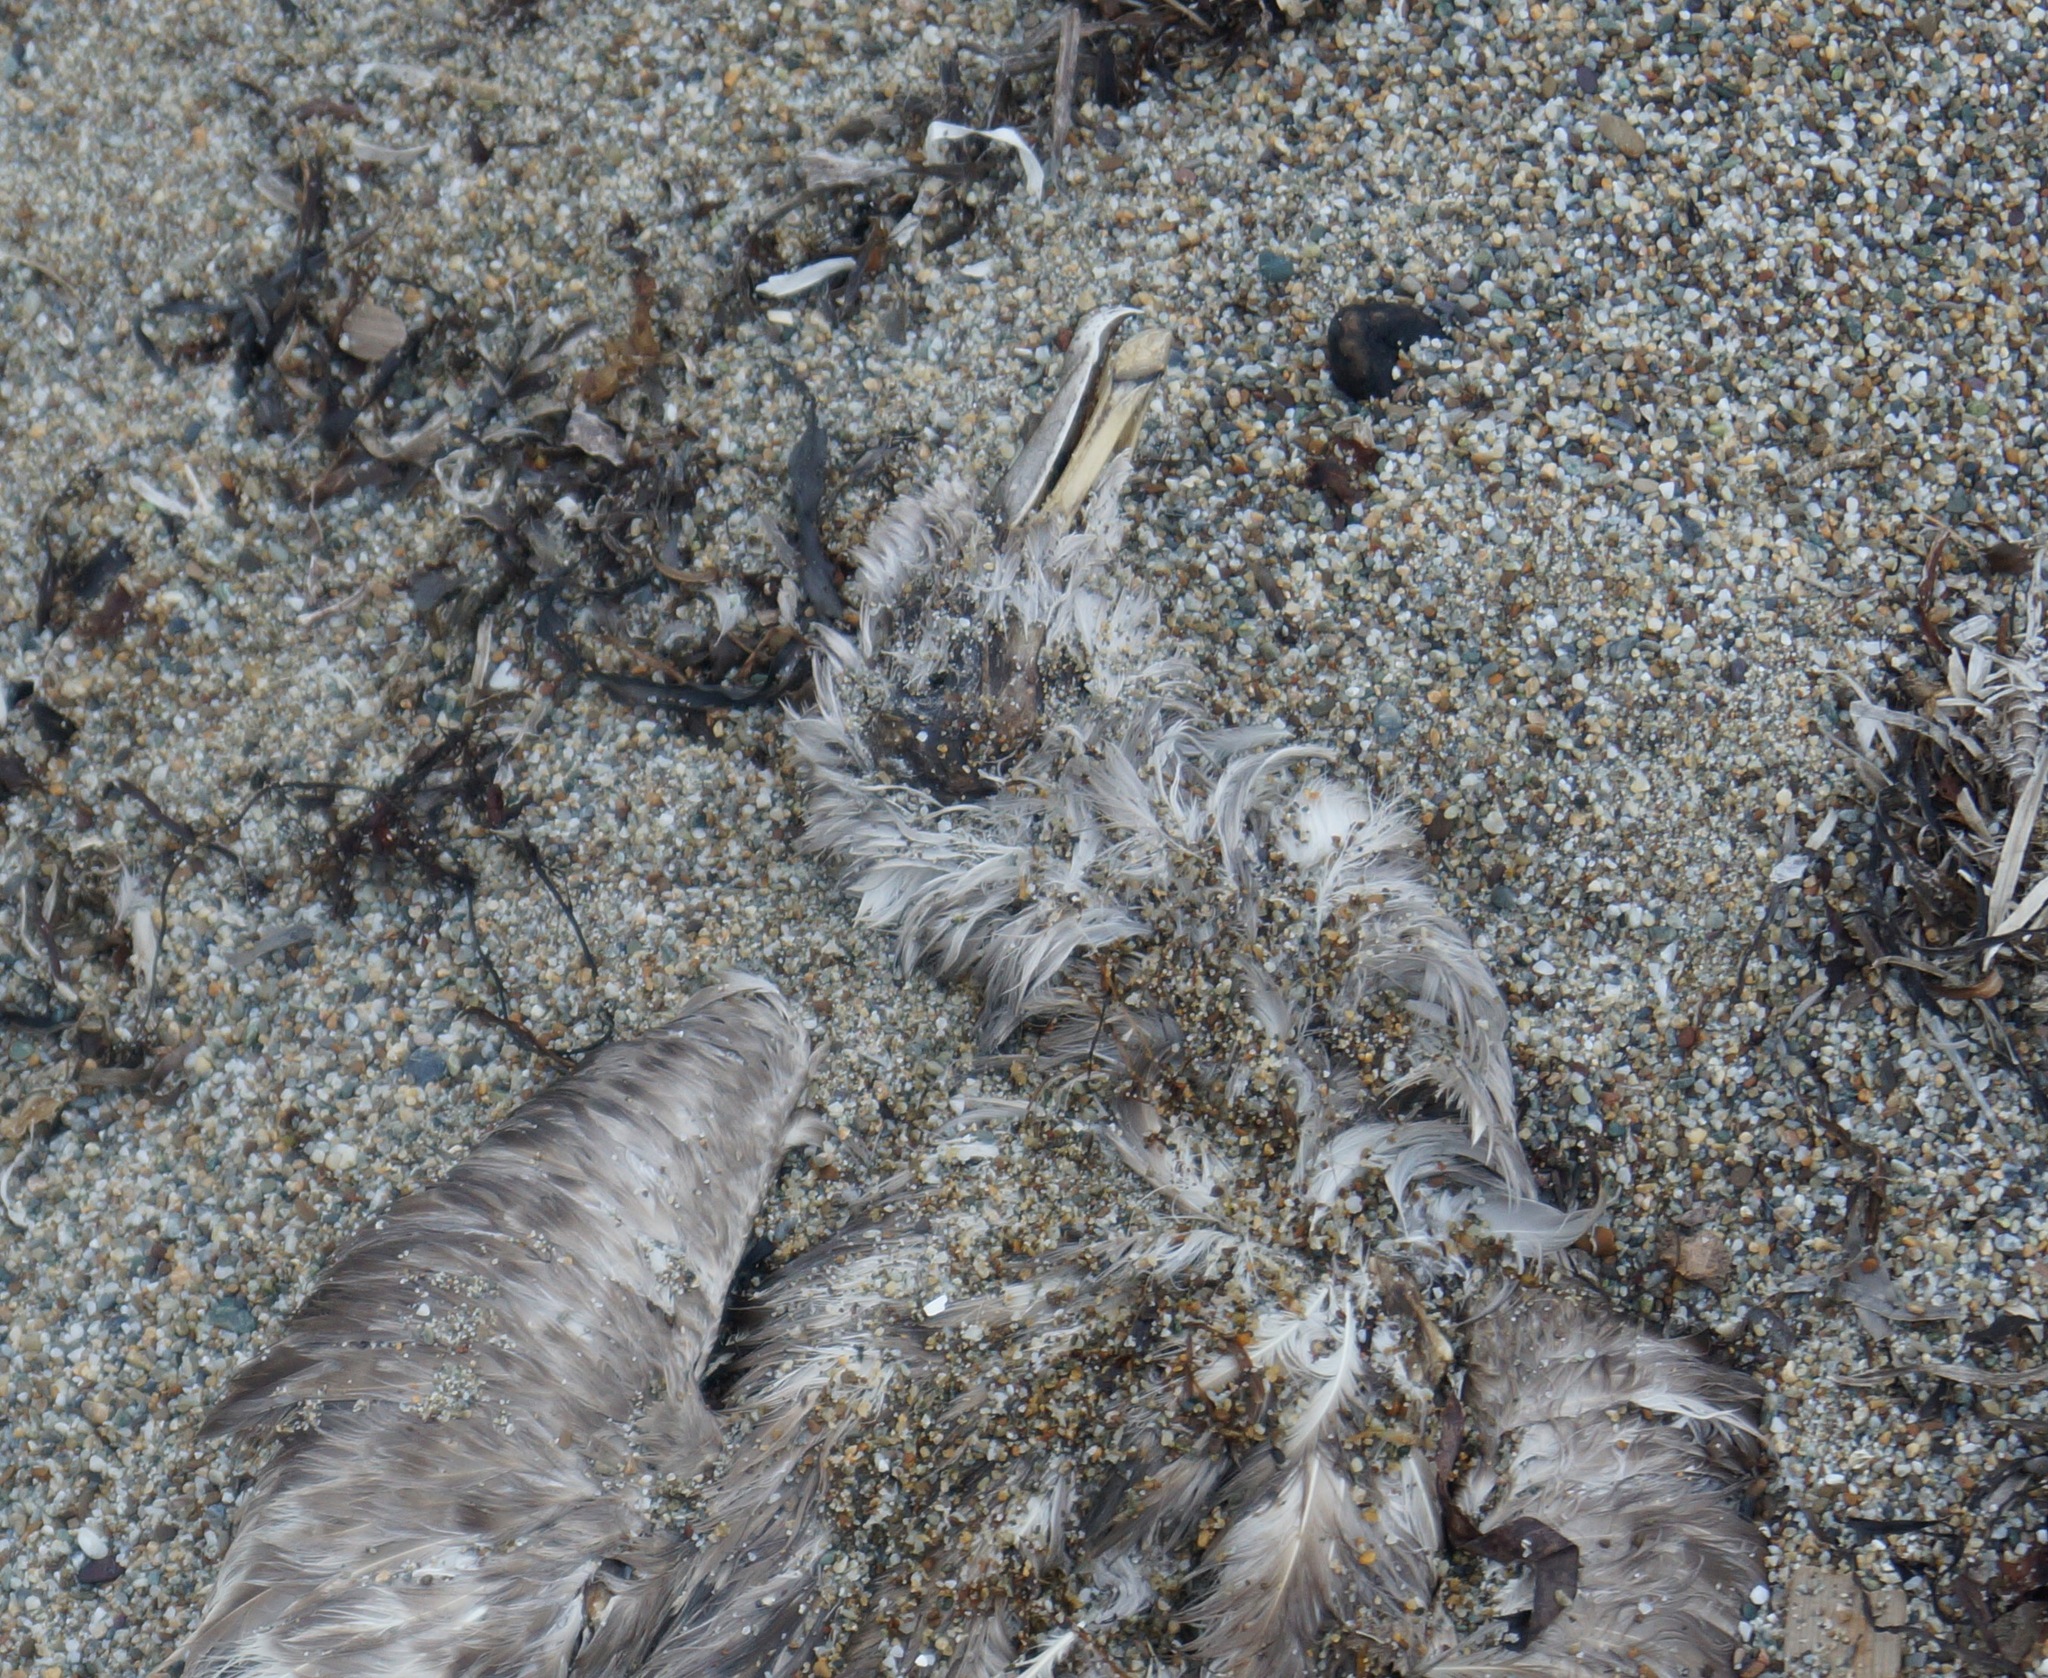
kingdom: Animalia
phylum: Chordata
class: Aves
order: Procellariiformes
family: Procellariidae
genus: Fulmarus
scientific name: Fulmarus glacialis
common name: Northern fulmar
